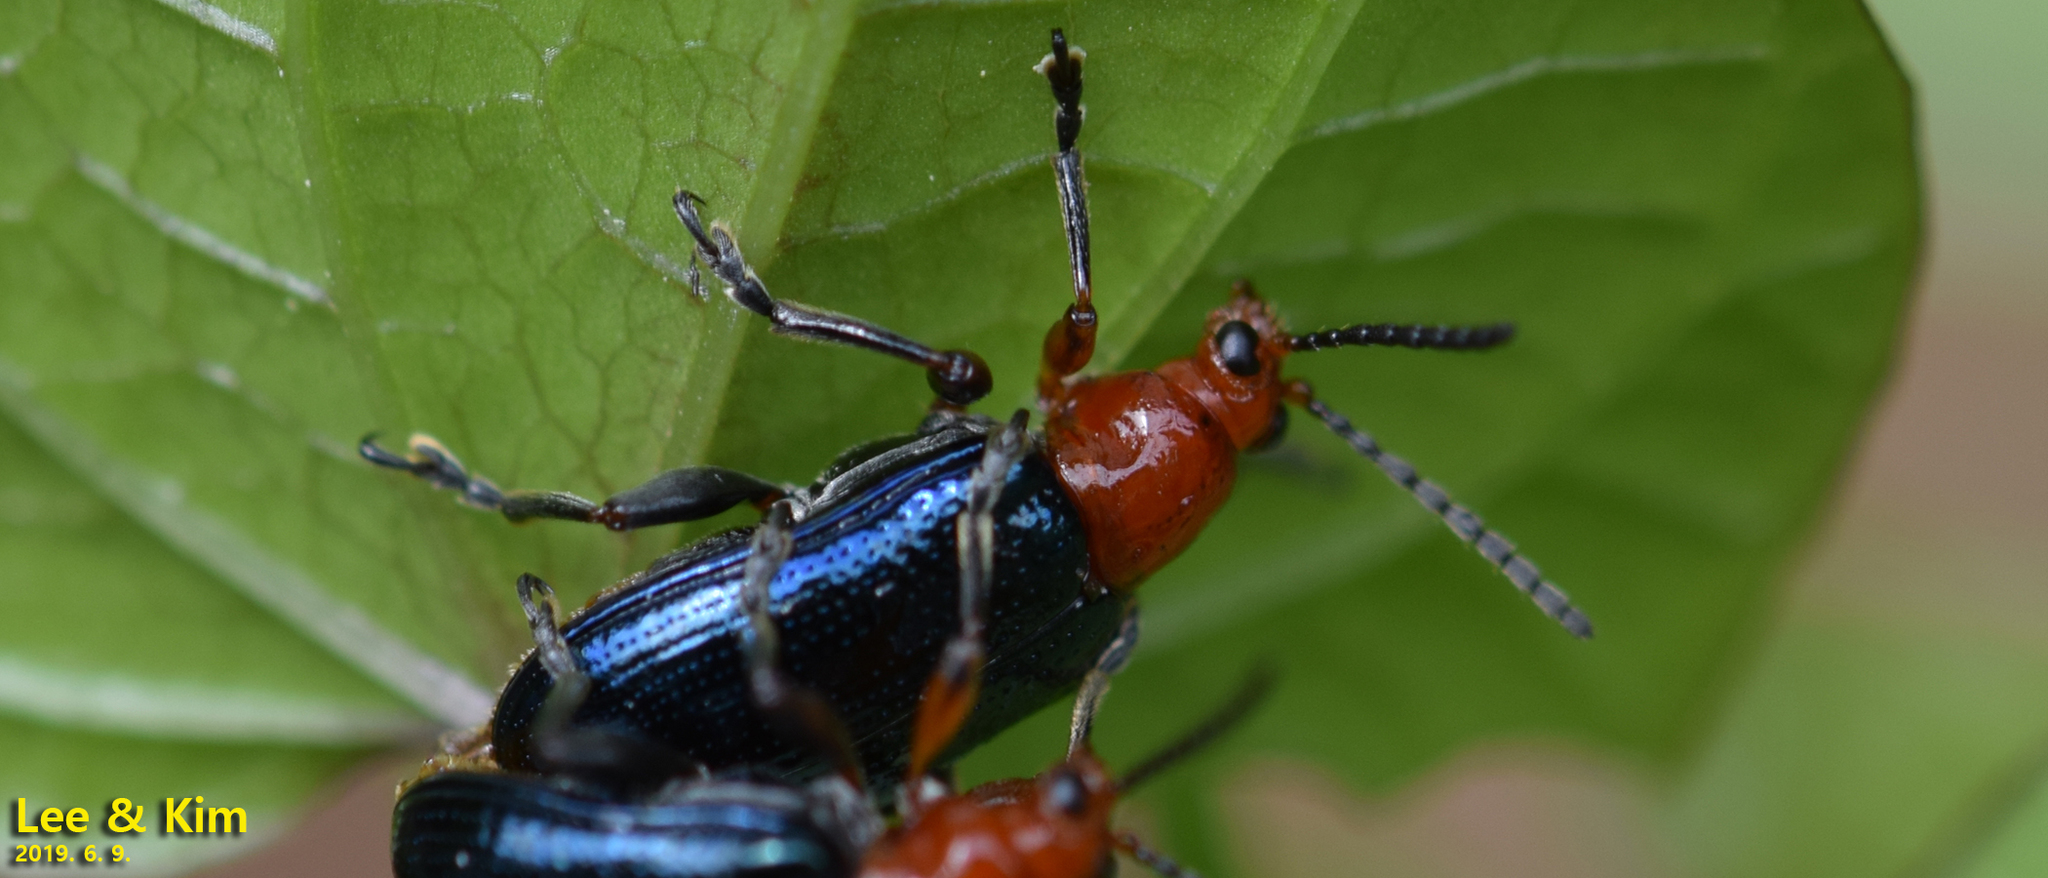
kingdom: Animalia
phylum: Arthropoda
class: Insecta
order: Coleoptera
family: Chrysomelidae
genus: Lema
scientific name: Lema fortunei
